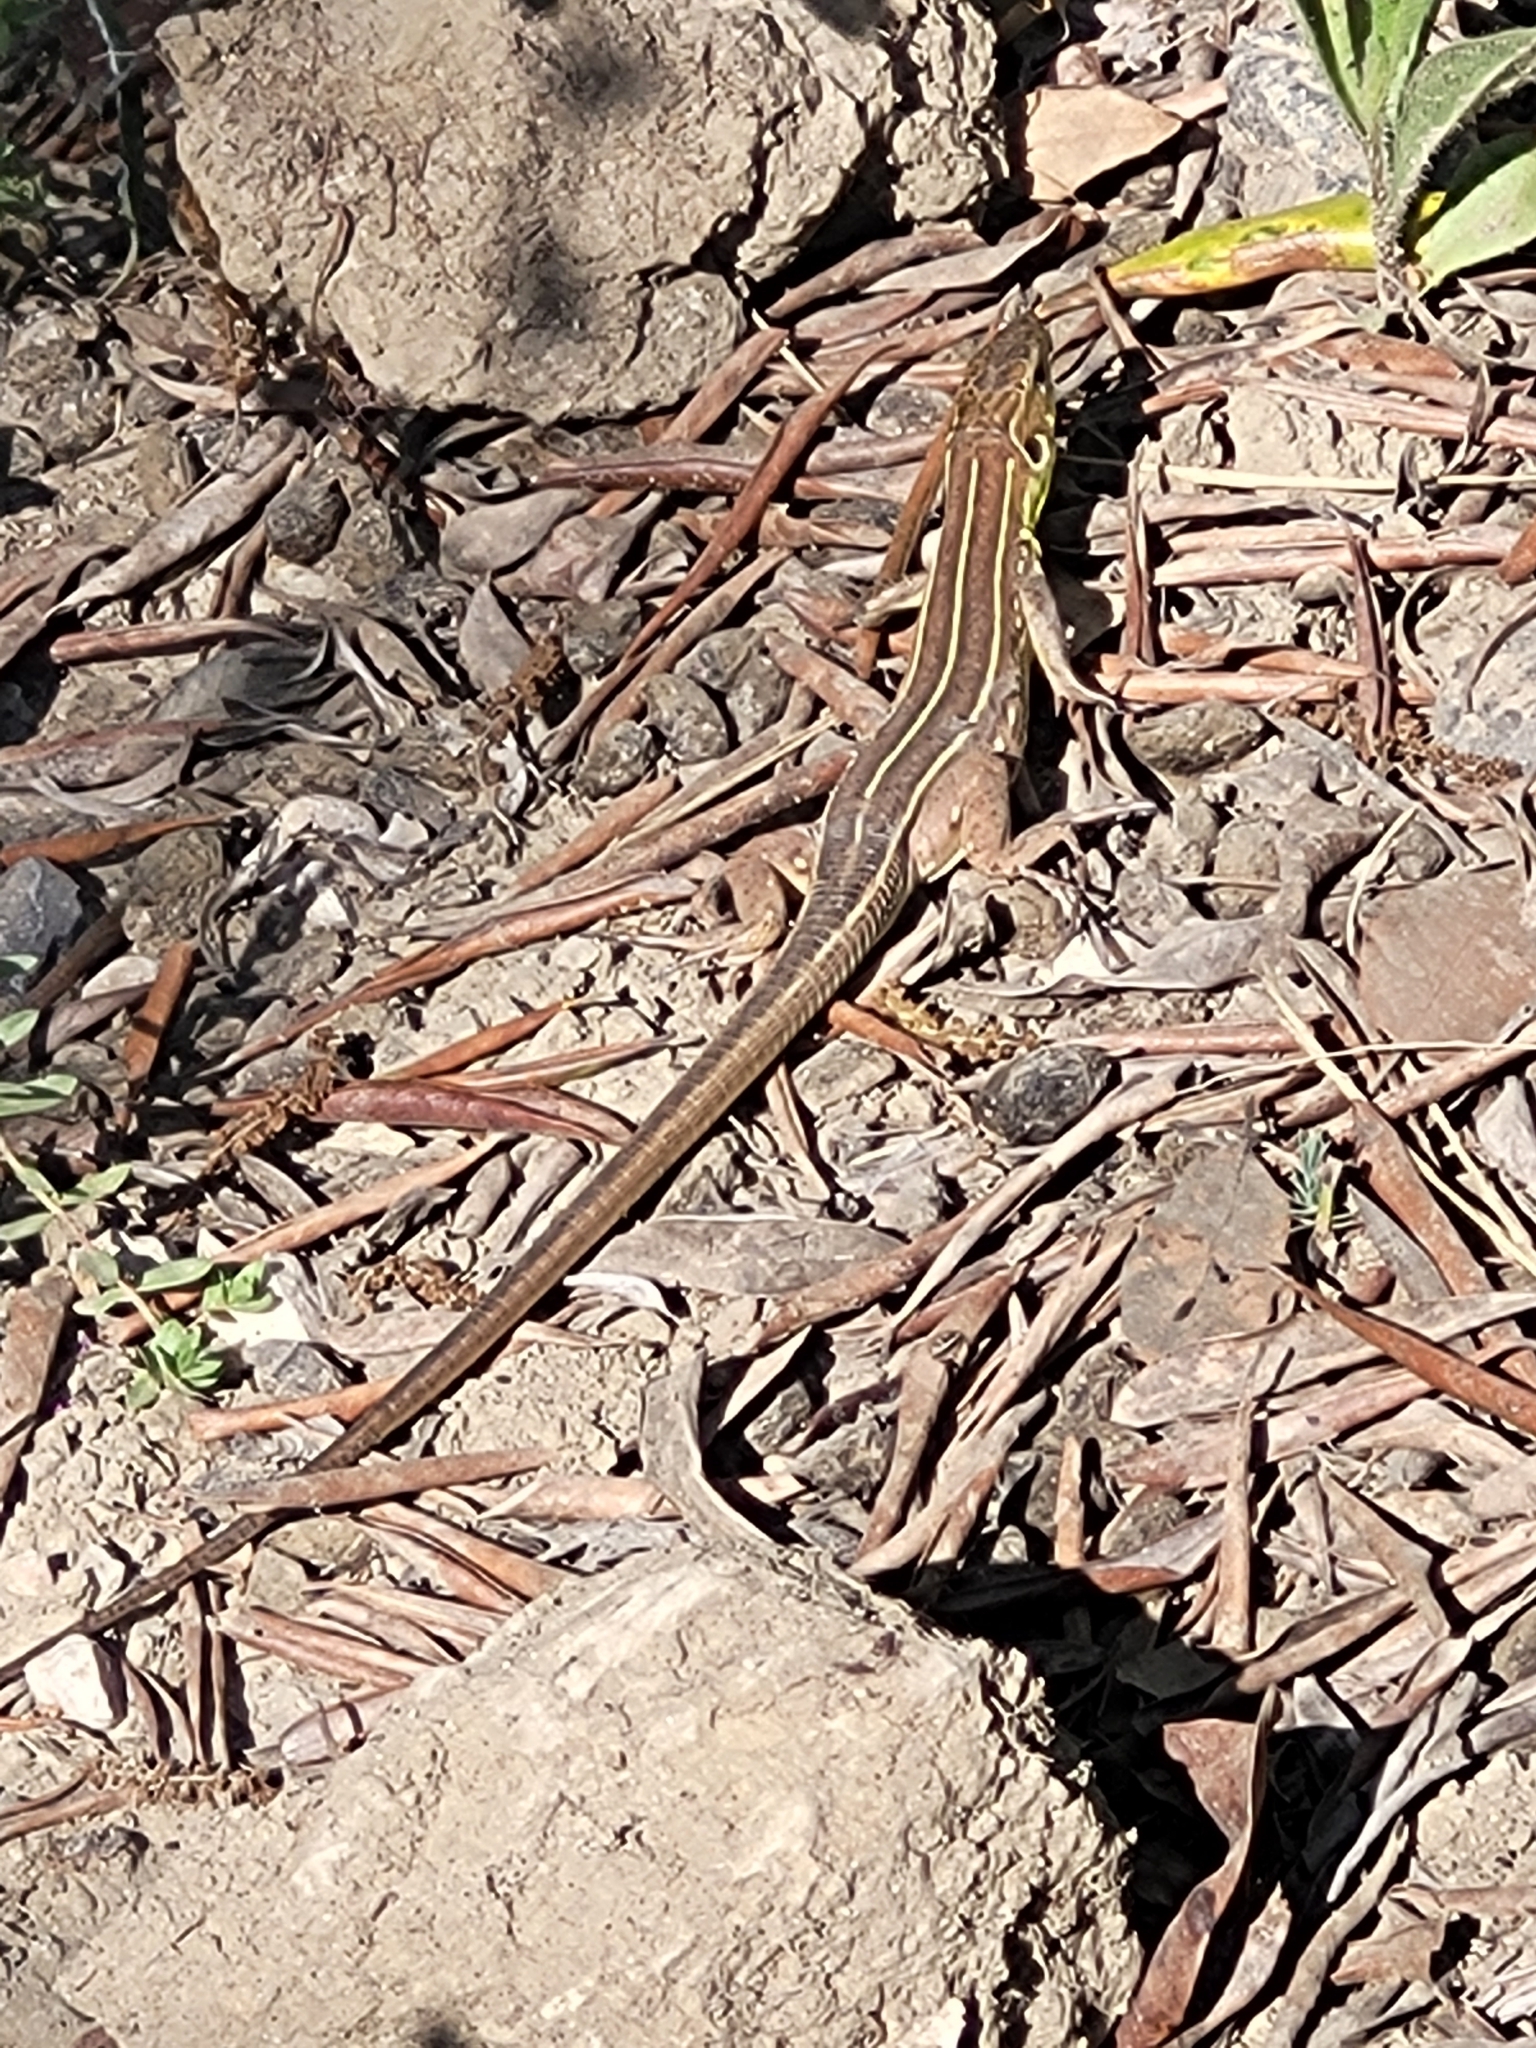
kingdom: Animalia
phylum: Chordata
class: Squamata
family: Lacertidae
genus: Lacerta
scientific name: Lacerta trilineata
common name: Balkan green lizard
